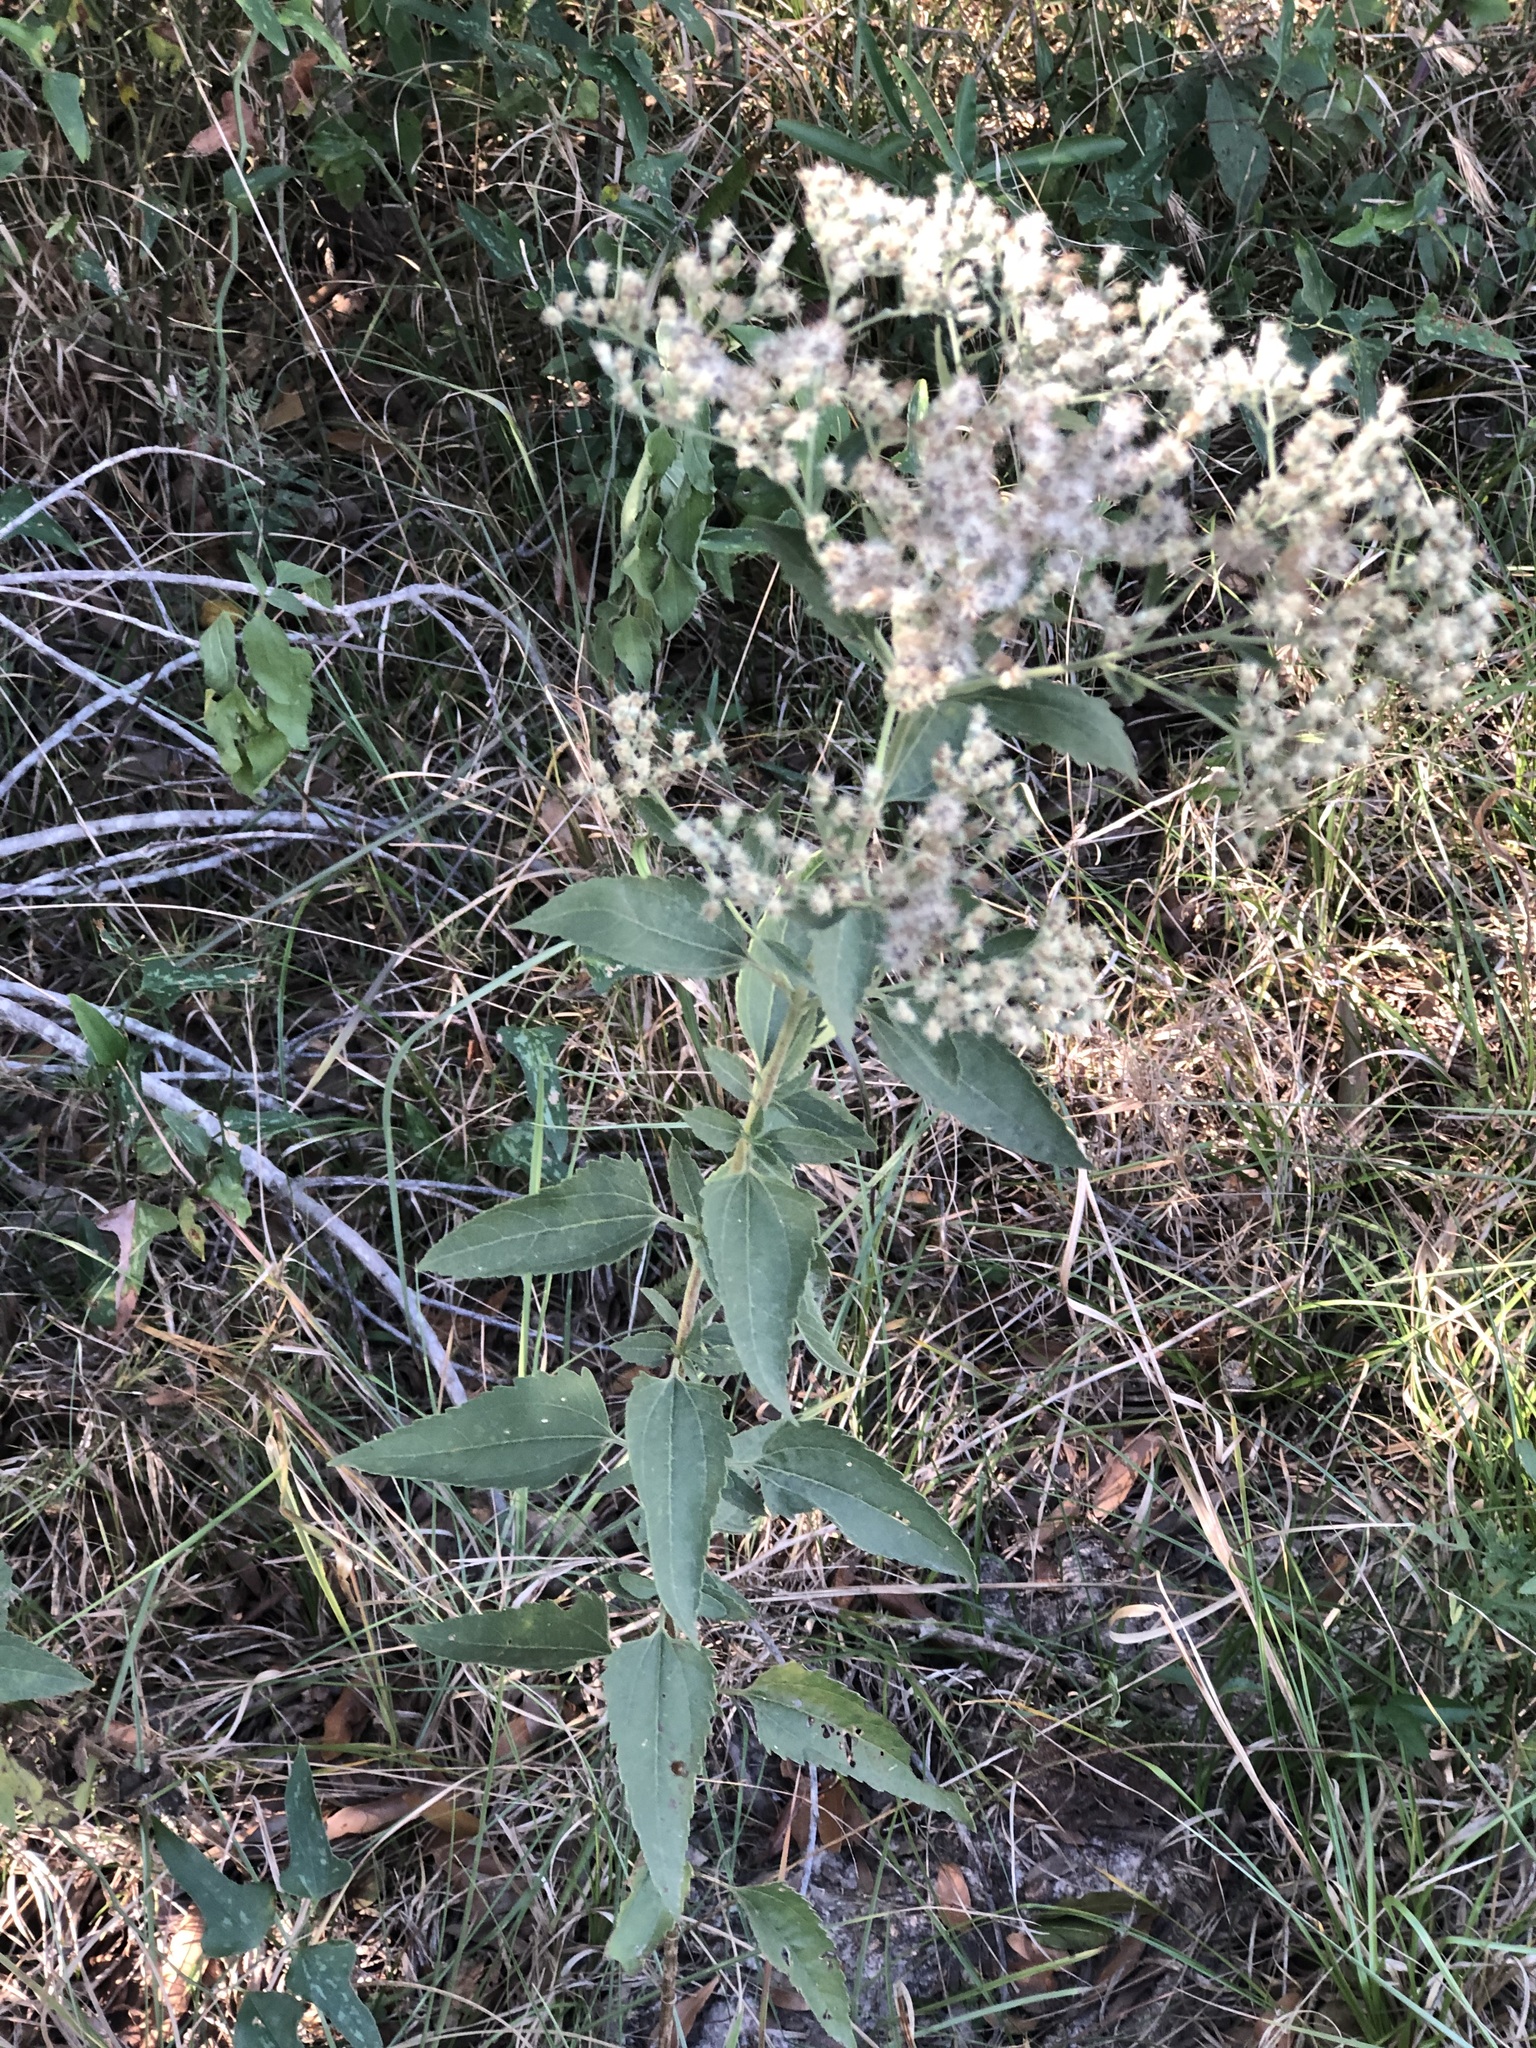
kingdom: Plantae
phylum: Tracheophyta
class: Magnoliopsida
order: Asterales
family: Asteraceae
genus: Eupatorium
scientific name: Eupatorium serotinum
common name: Late boneset
